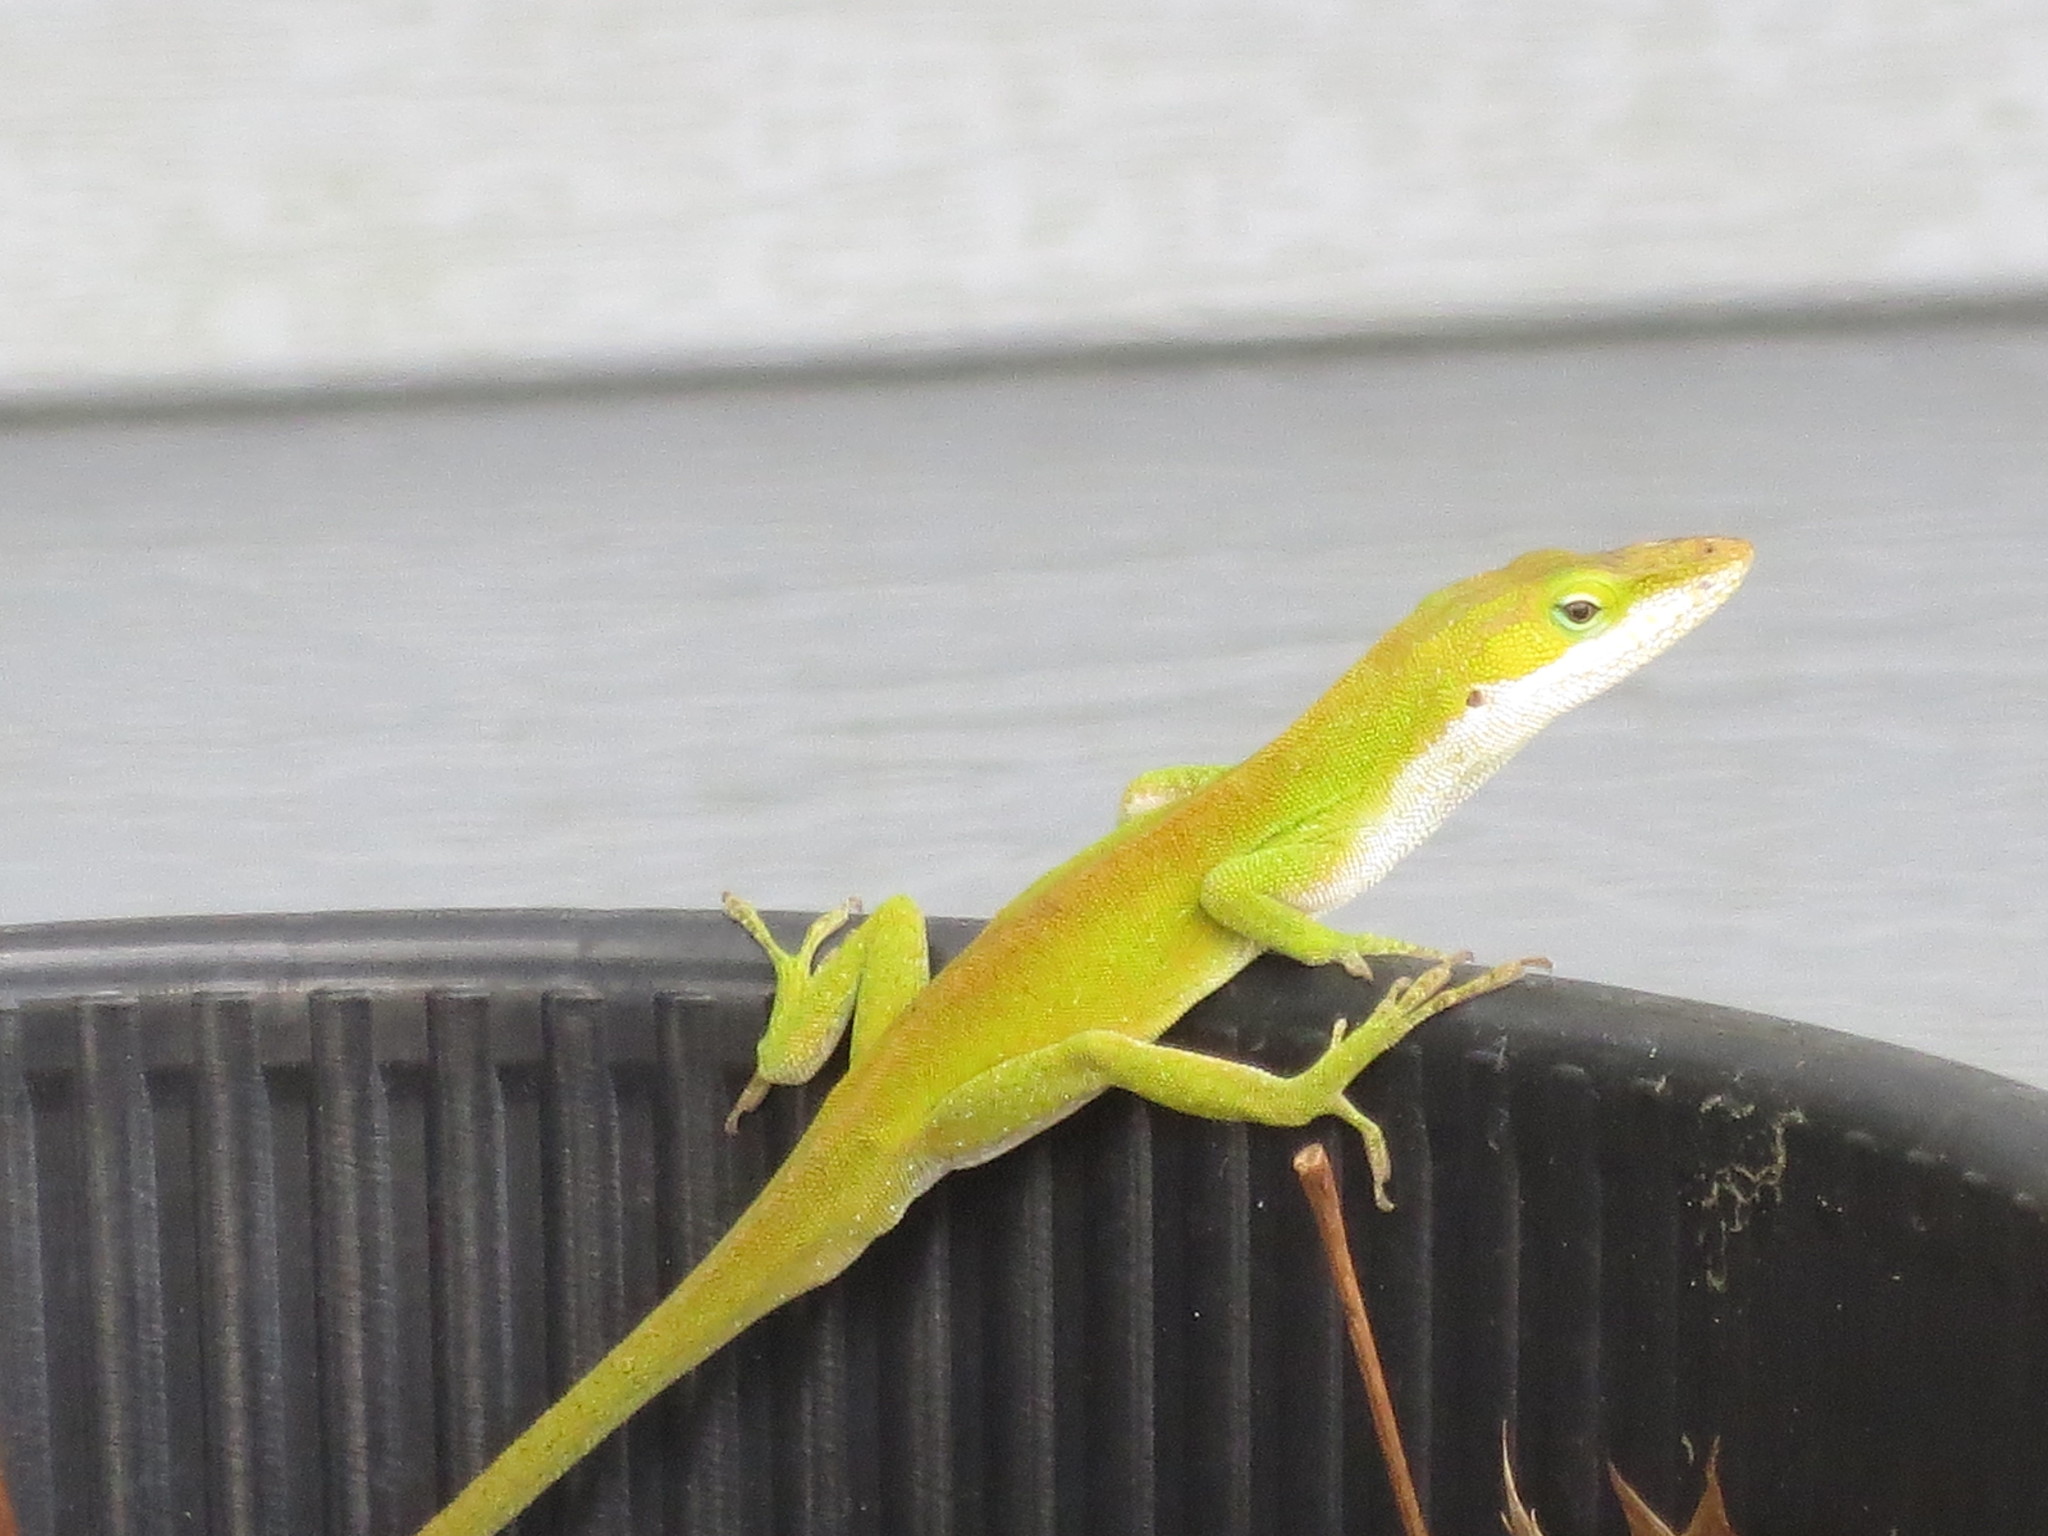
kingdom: Animalia
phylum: Chordata
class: Squamata
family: Dactyloidae
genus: Anolis
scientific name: Anolis carolinensis
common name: Green anole
